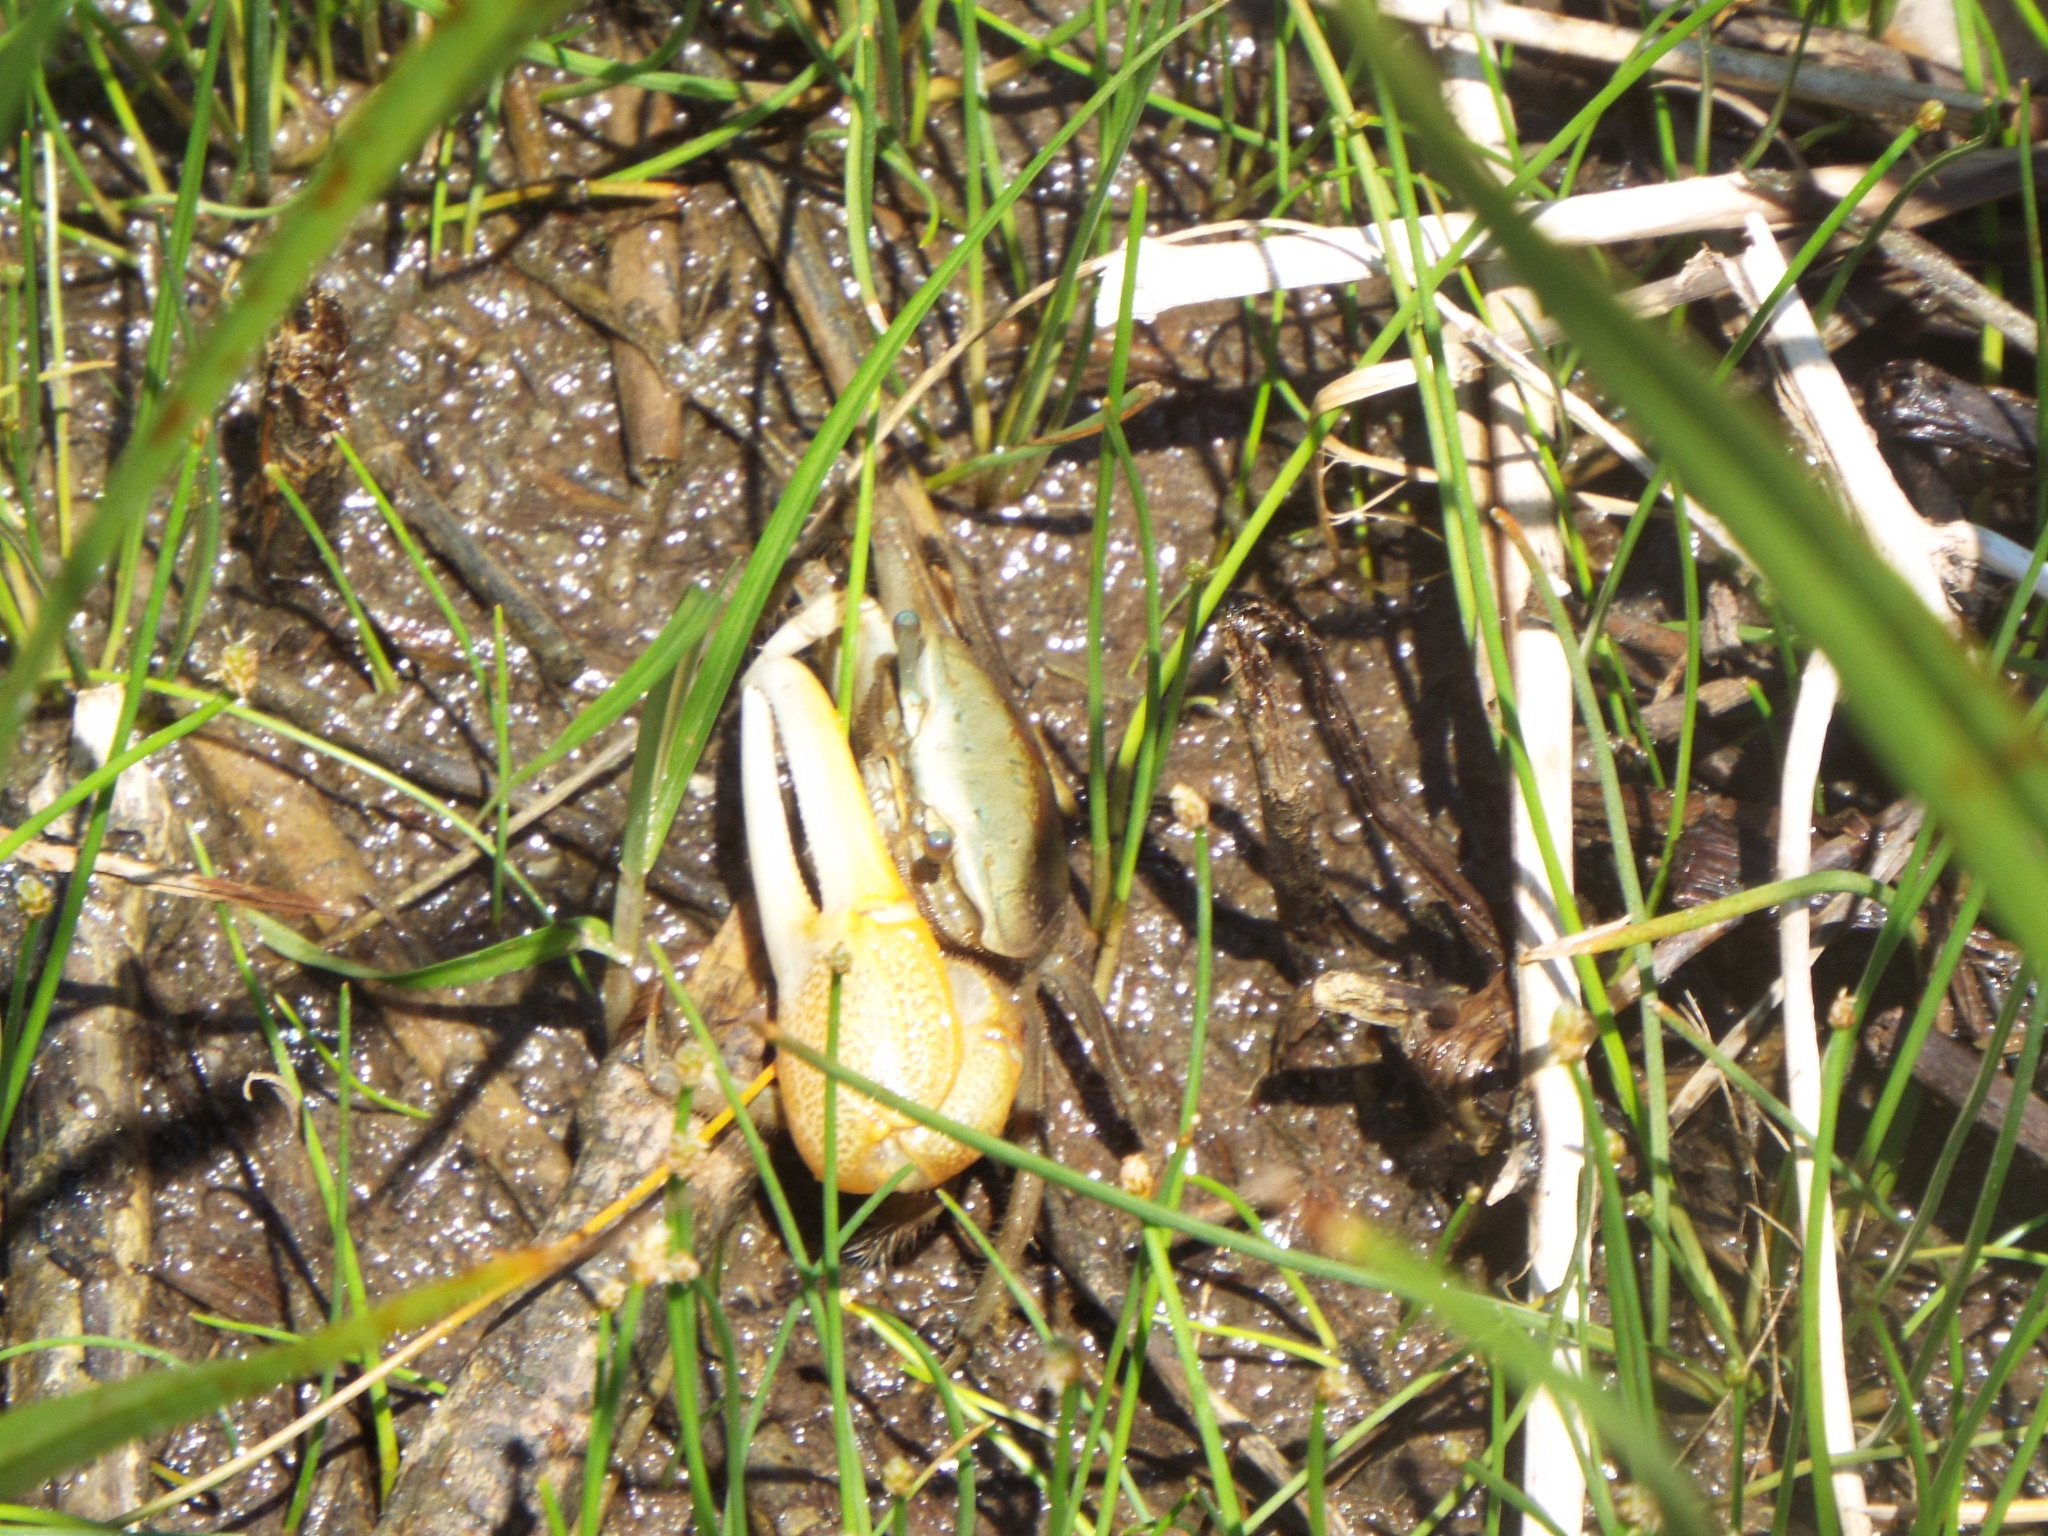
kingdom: Animalia
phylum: Arthropoda
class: Malacostraca
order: Decapoda
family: Ocypodidae
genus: Minuca
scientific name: Minuca longisignalis
